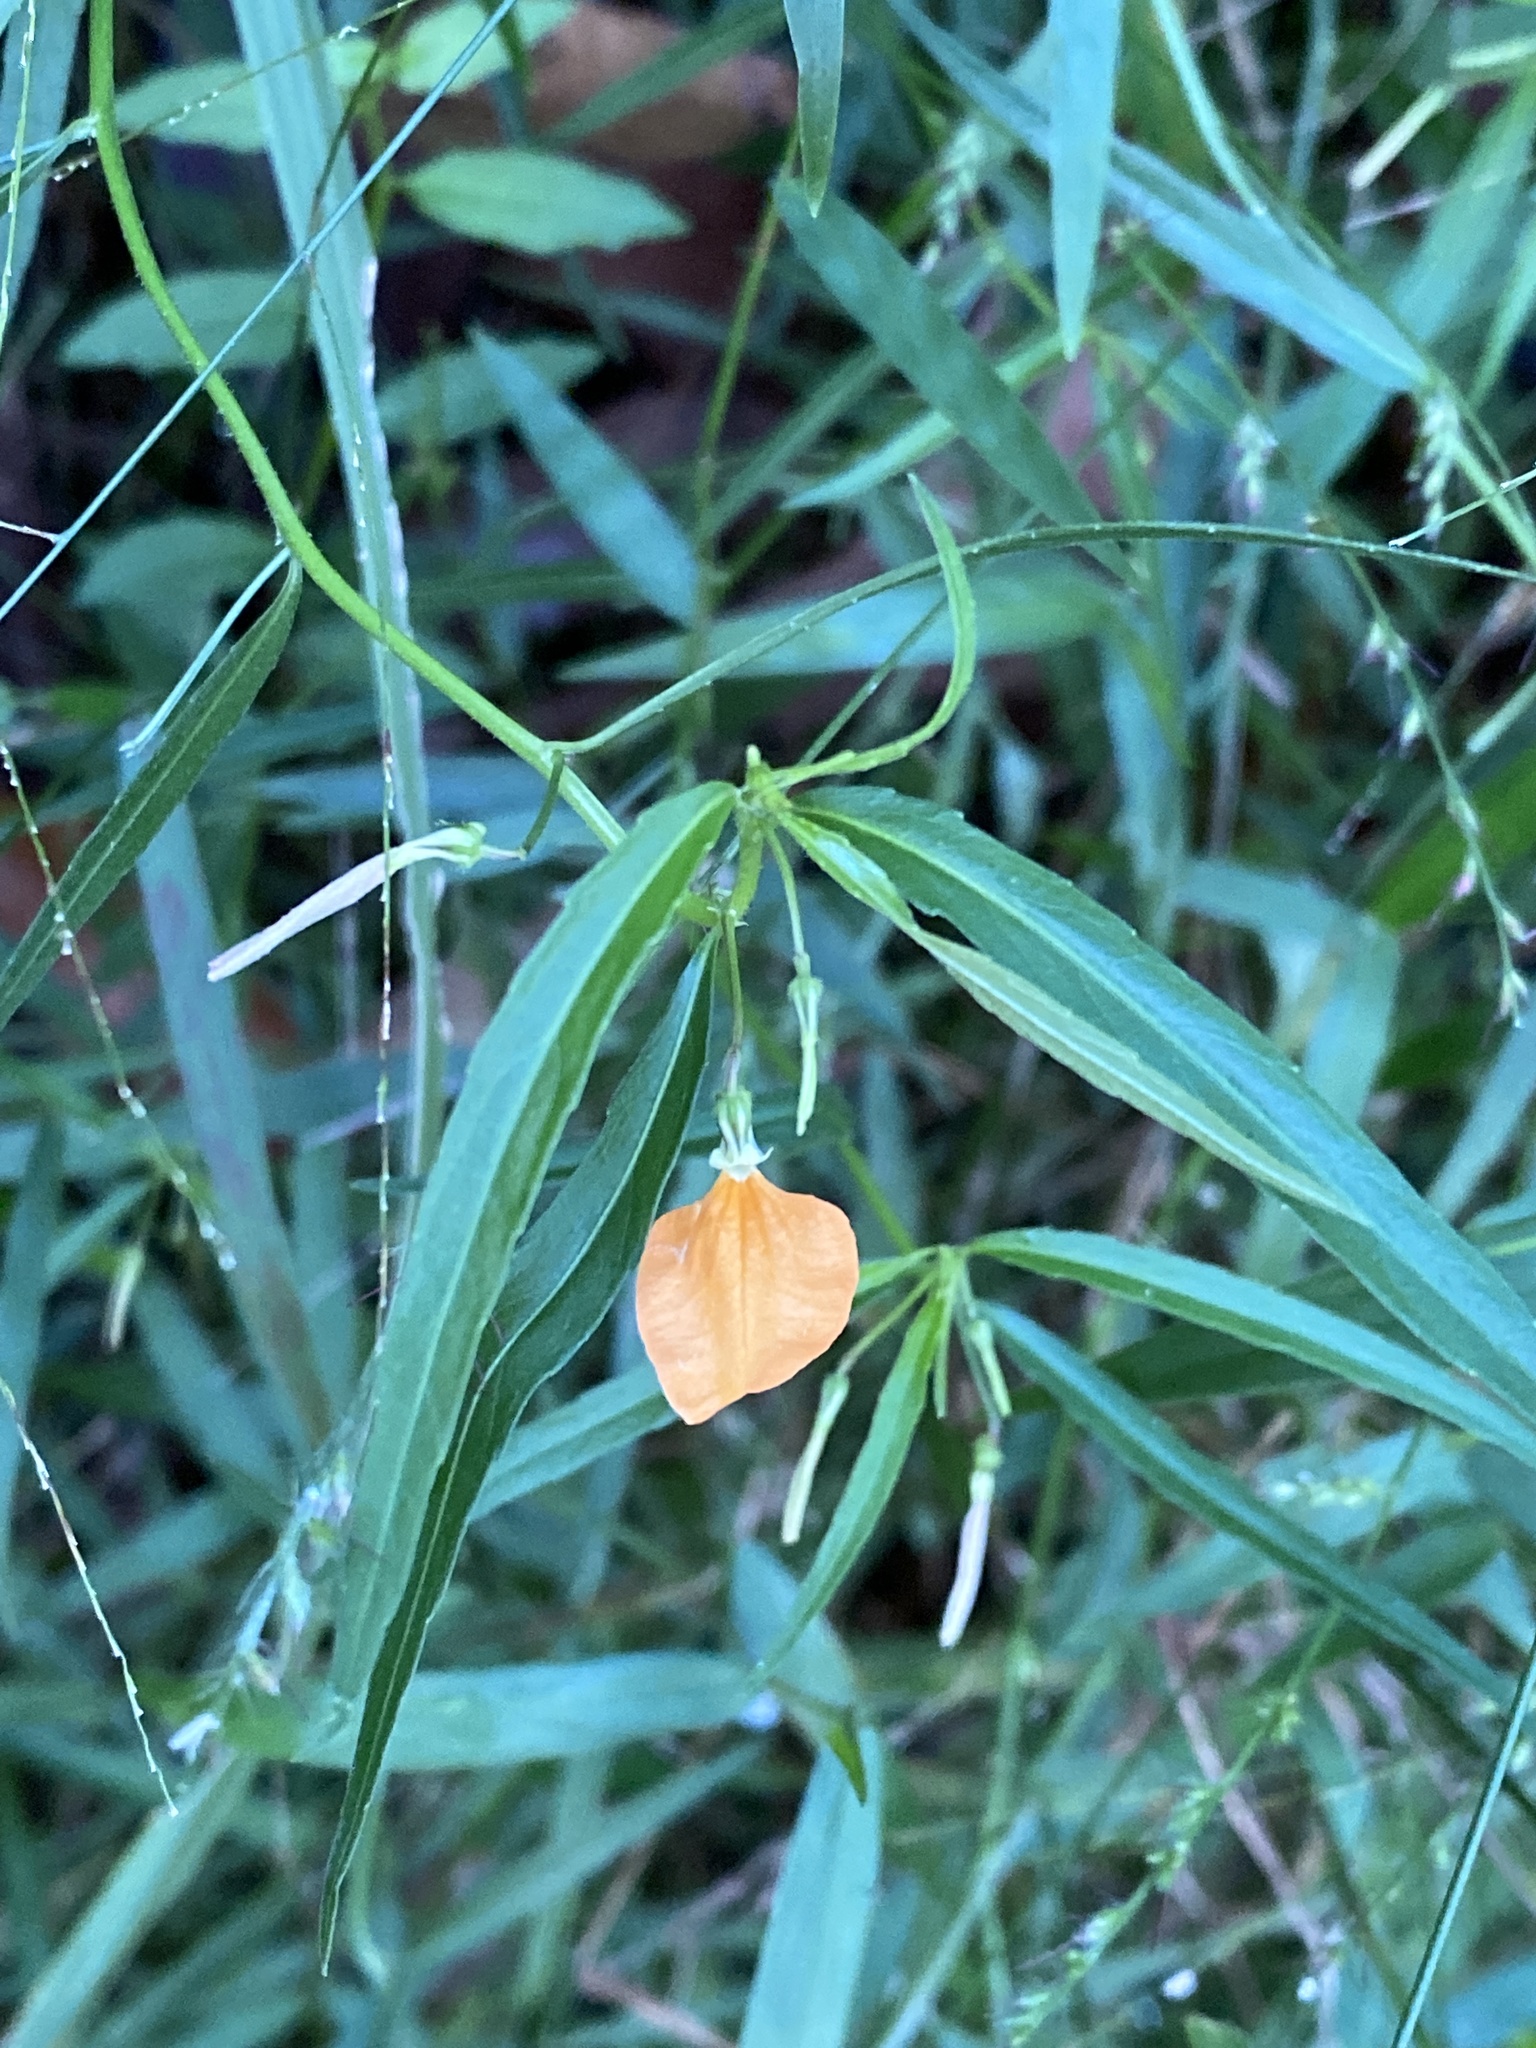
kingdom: Plantae
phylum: Tracheophyta
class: Magnoliopsida
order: Malpighiales
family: Violaceae
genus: Pigea
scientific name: Pigea stellarioides
